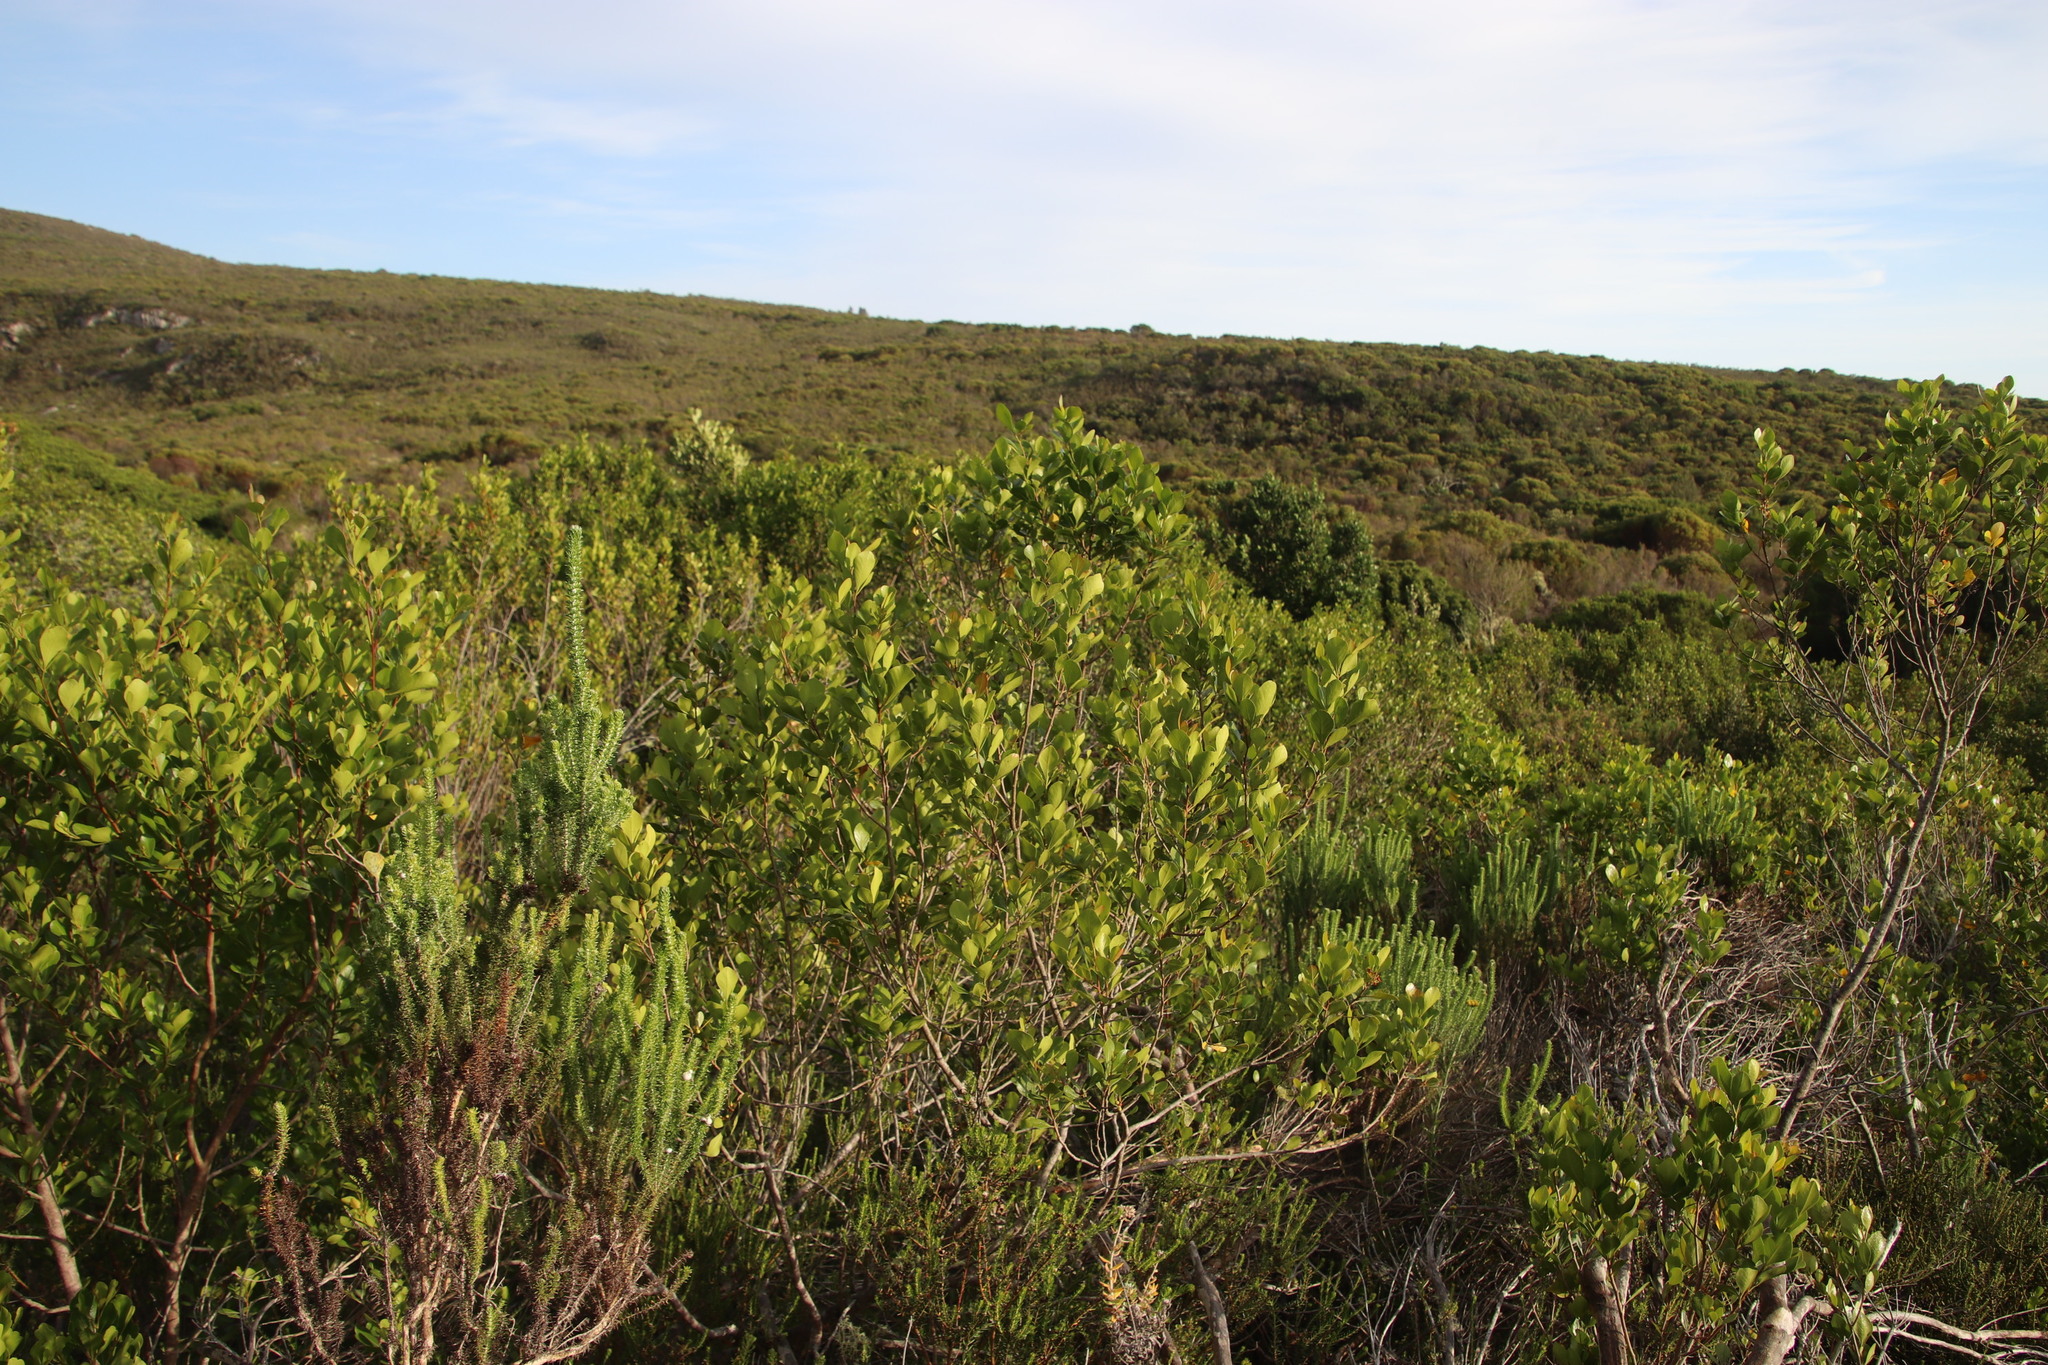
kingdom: Plantae
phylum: Tracheophyta
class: Magnoliopsida
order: Sapindales
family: Anacardiaceae
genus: Searsia
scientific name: Searsia lucida
